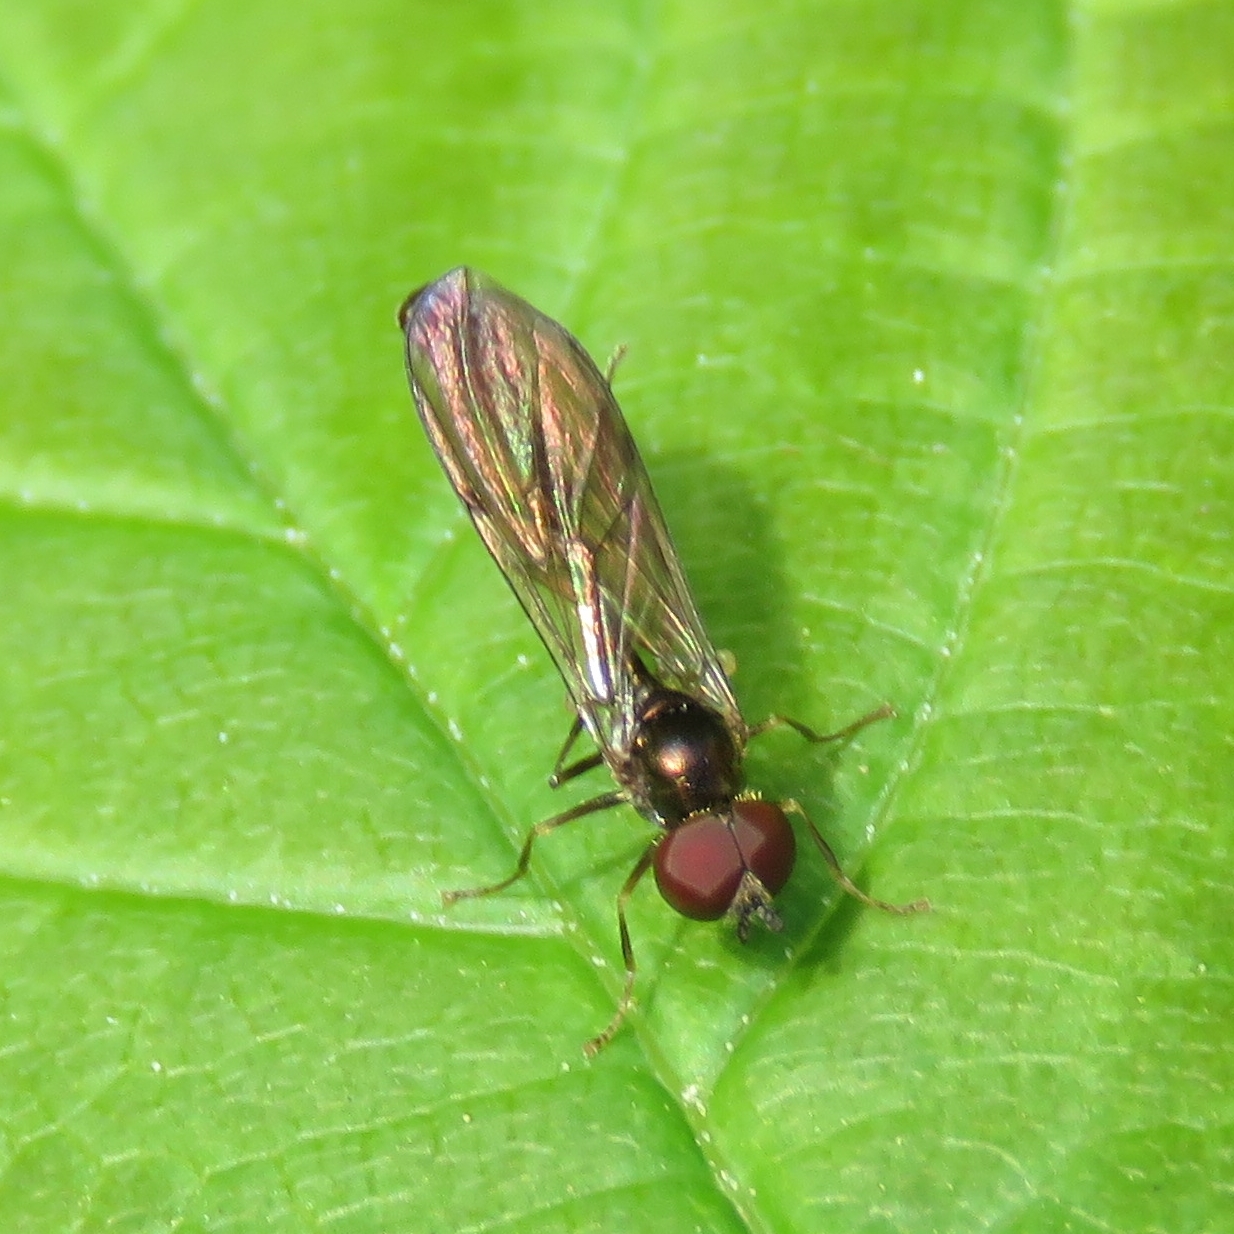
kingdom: Animalia
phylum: Arthropoda
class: Insecta
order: Diptera
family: Syrphidae
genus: Baccha
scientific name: Baccha elongata
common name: Common dainty
